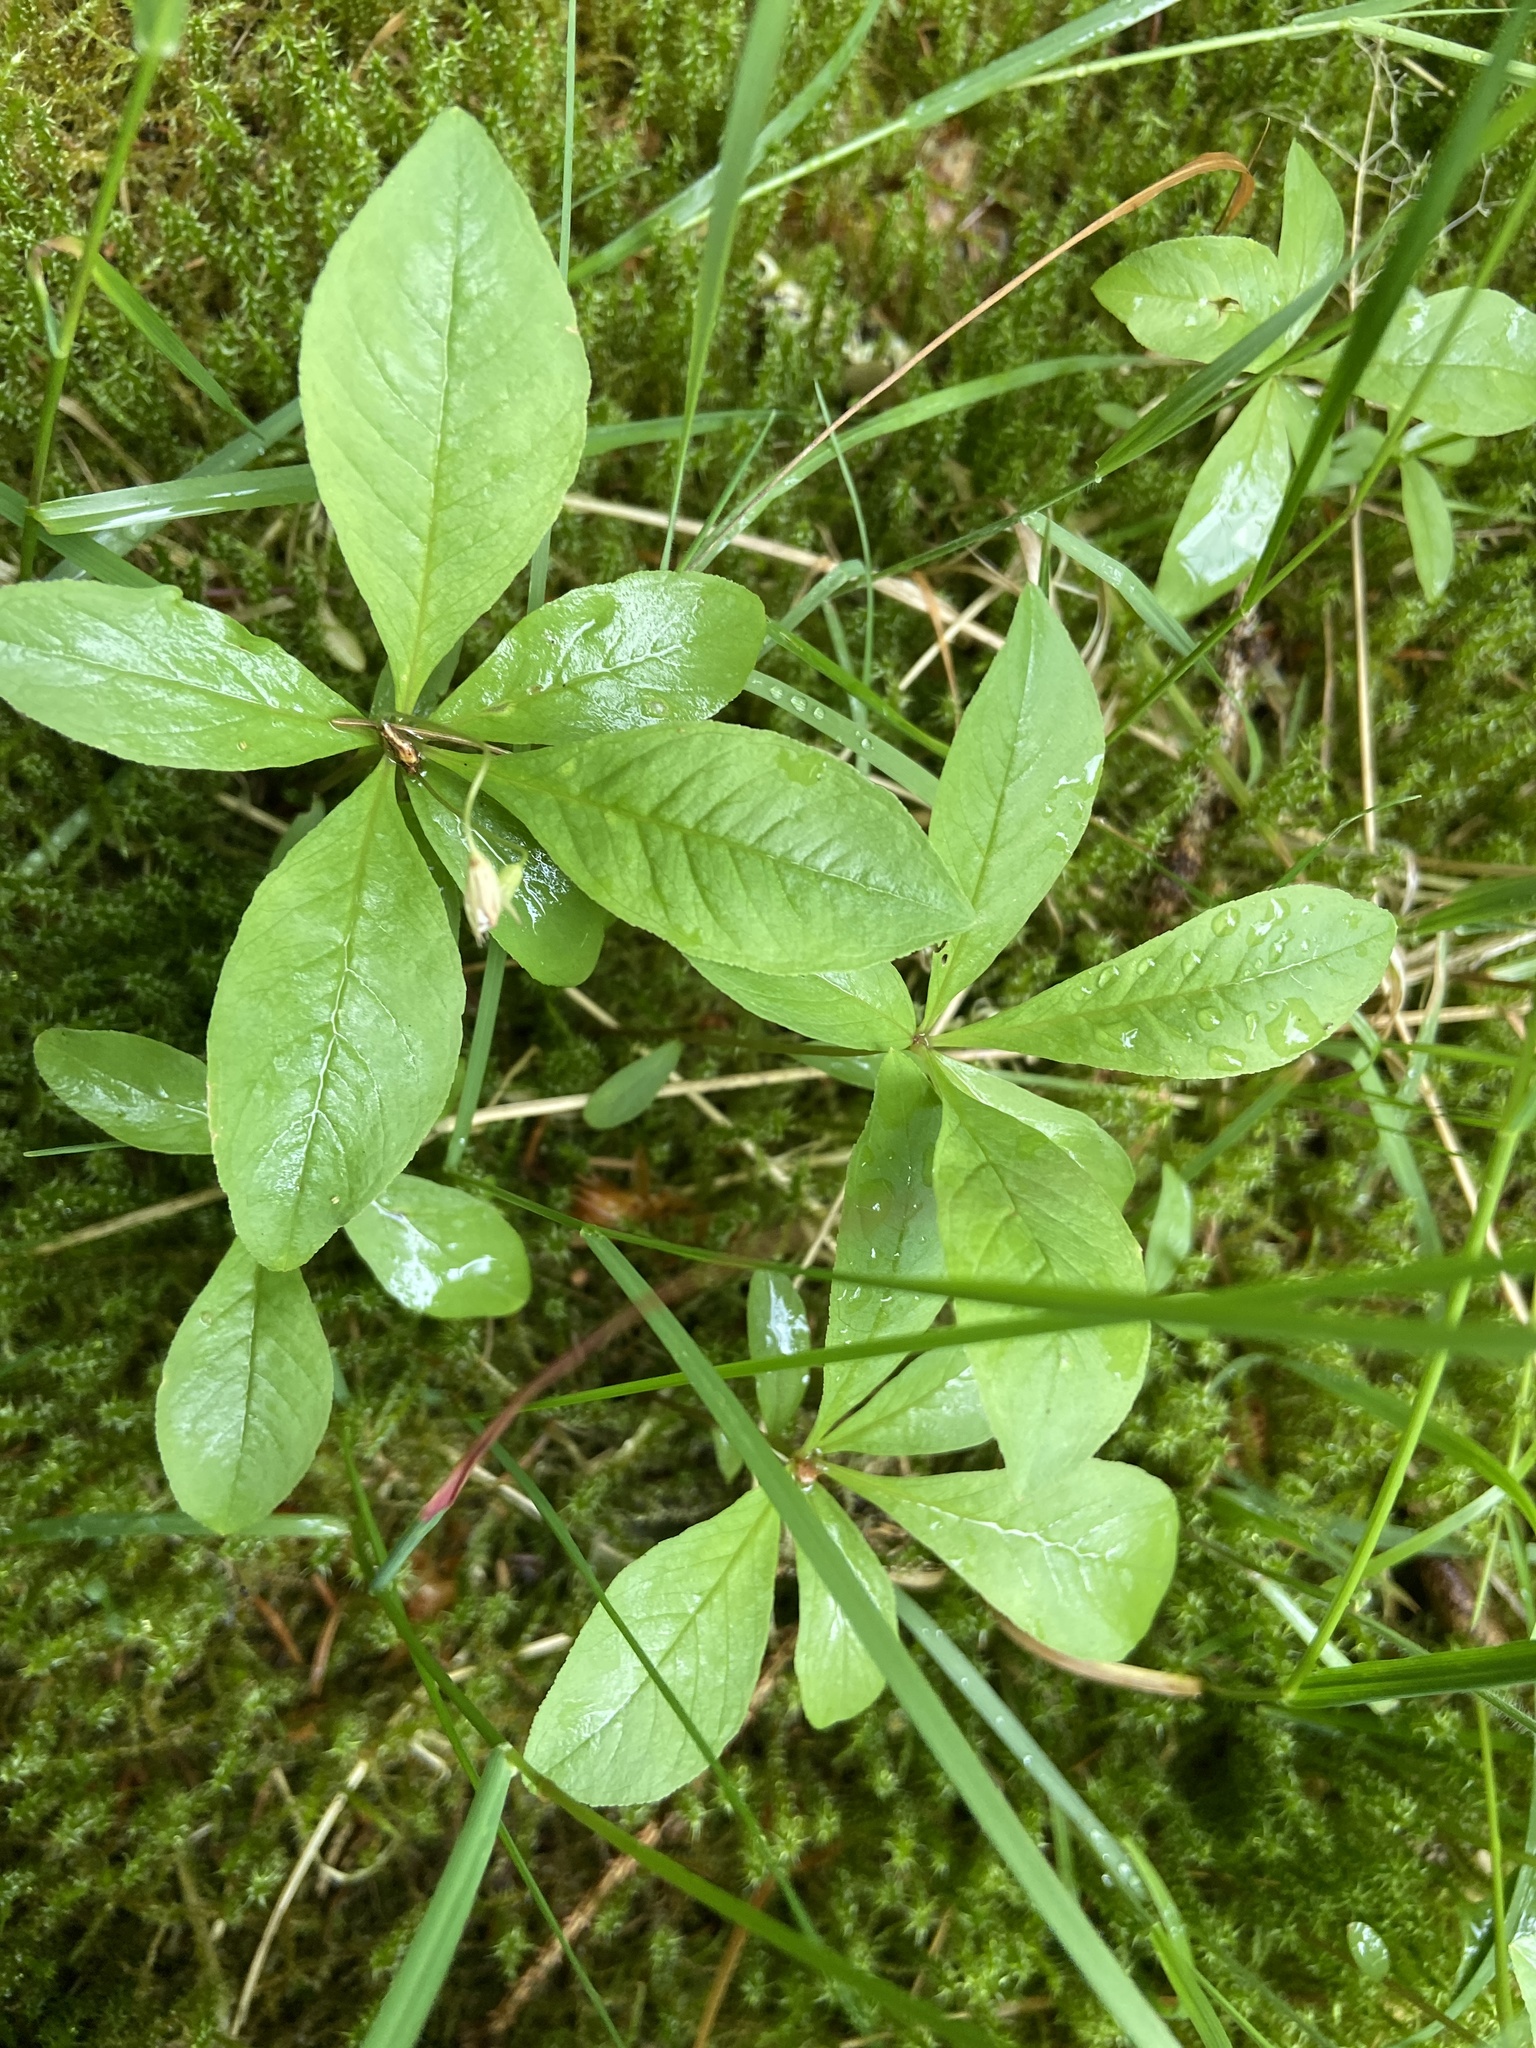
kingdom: Plantae
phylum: Tracheophyta
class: Magnoliopsida
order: Ericales
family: Primulaceae
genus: Lysimachia
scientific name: Lysimachia europaea
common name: Arctic starflower
